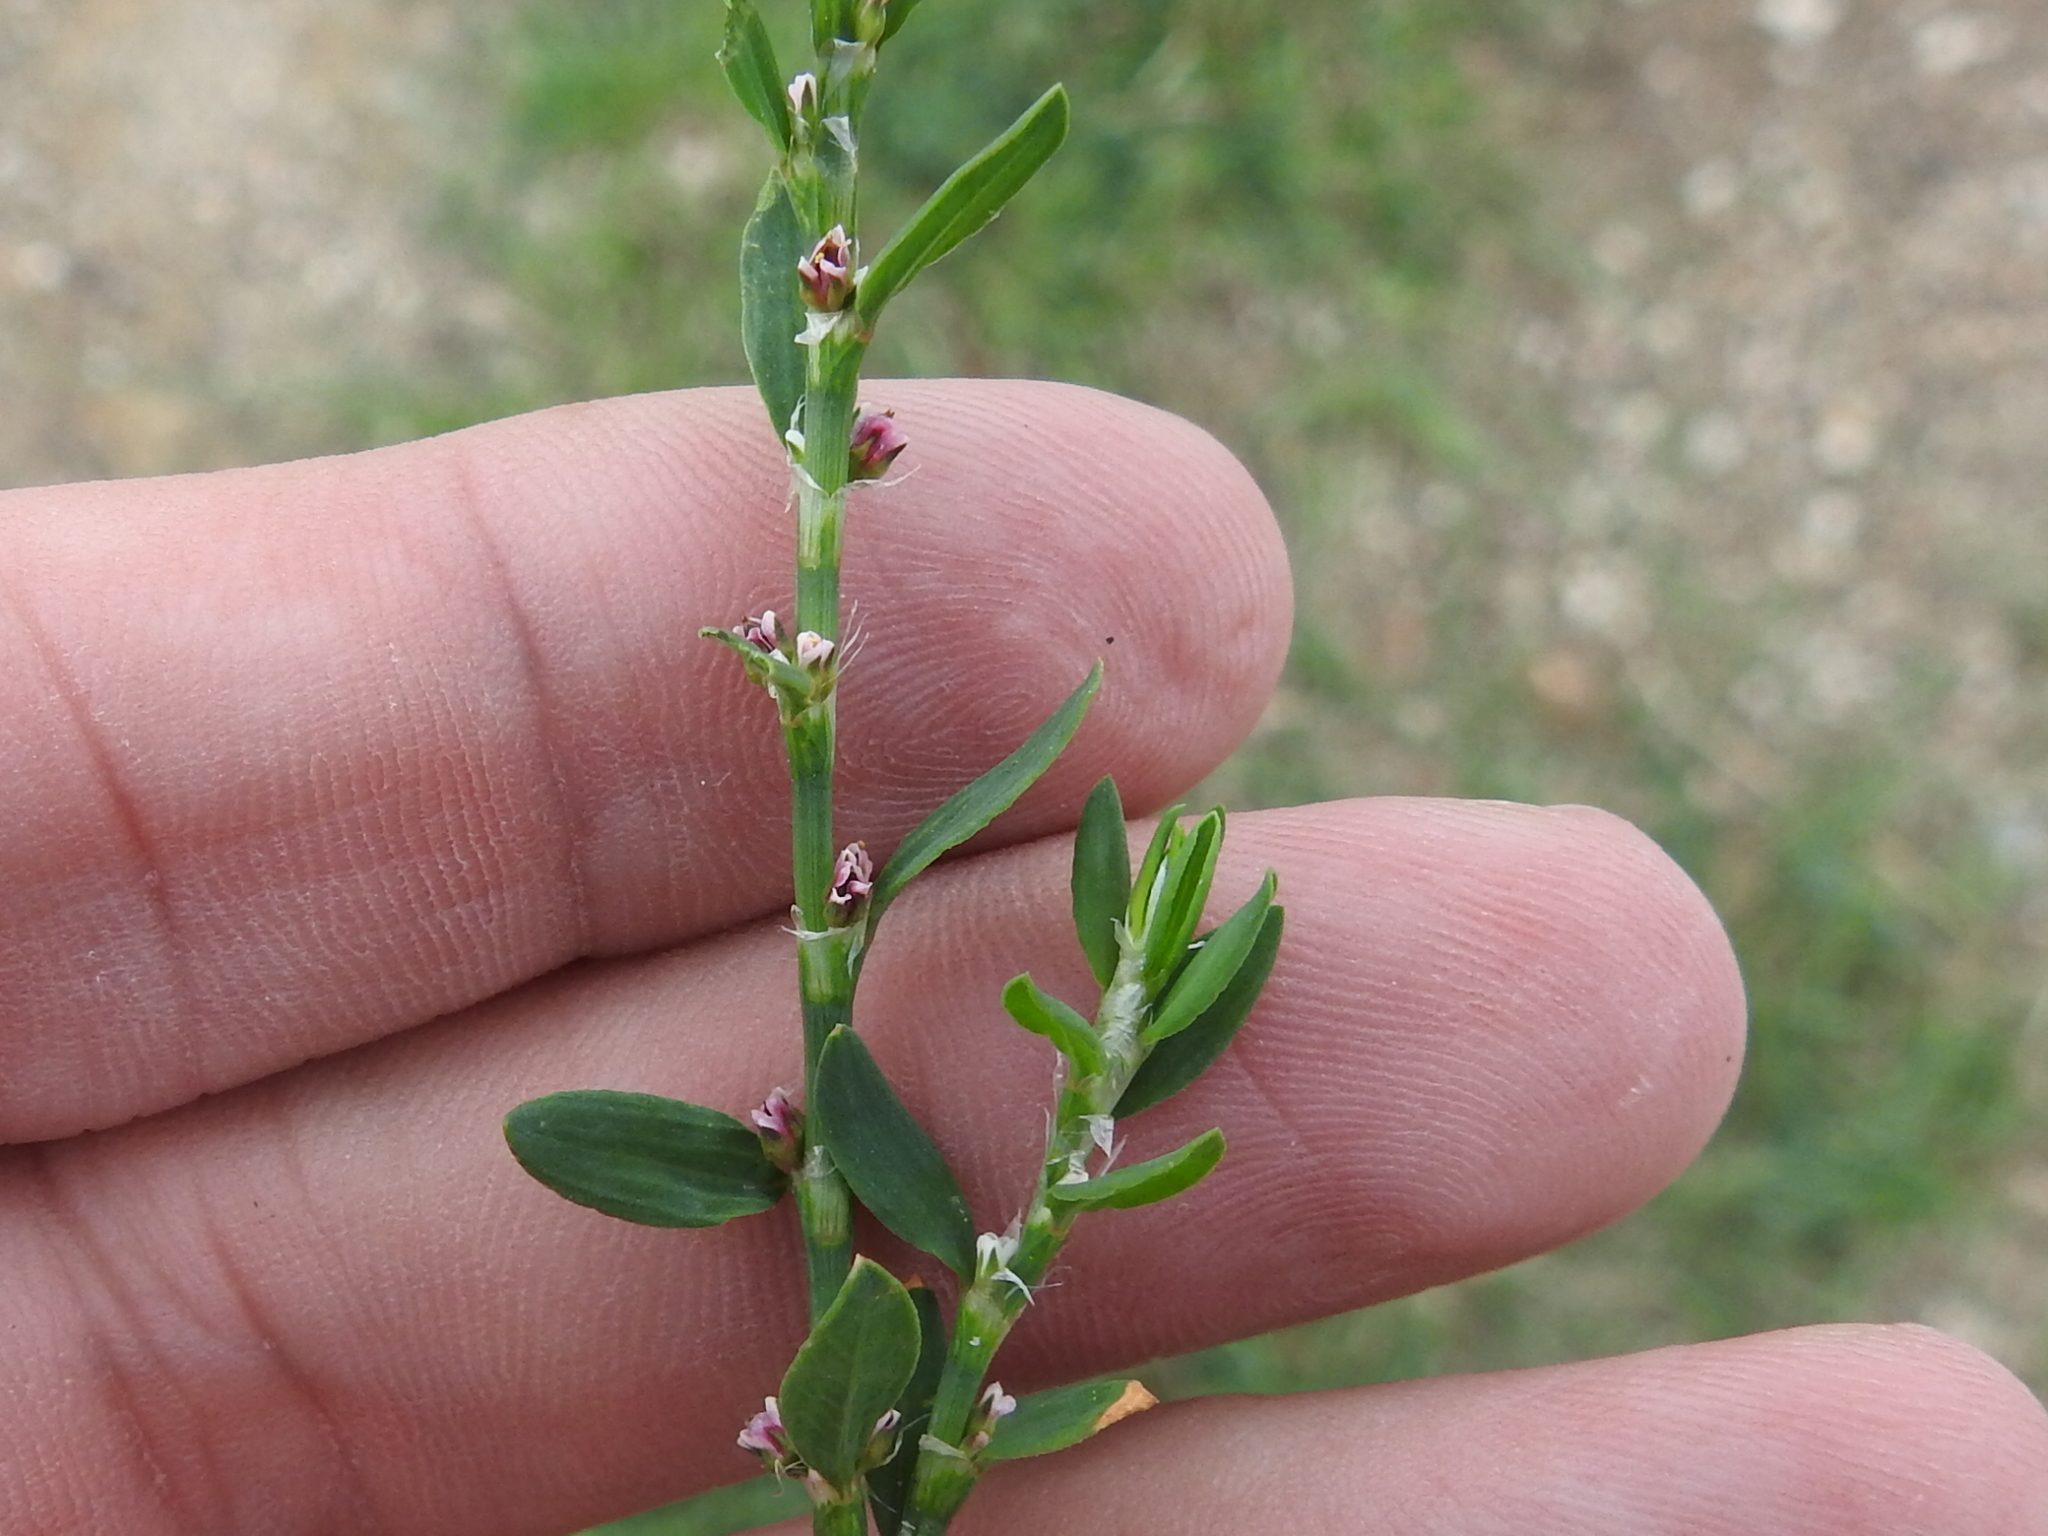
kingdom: Plantae
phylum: Tracheophyta
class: Magnoliopsida
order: Caryophyllales
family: Polygonaceae
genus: Polygonum
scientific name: Polygonum aviculare
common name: Prostrate knotweed
